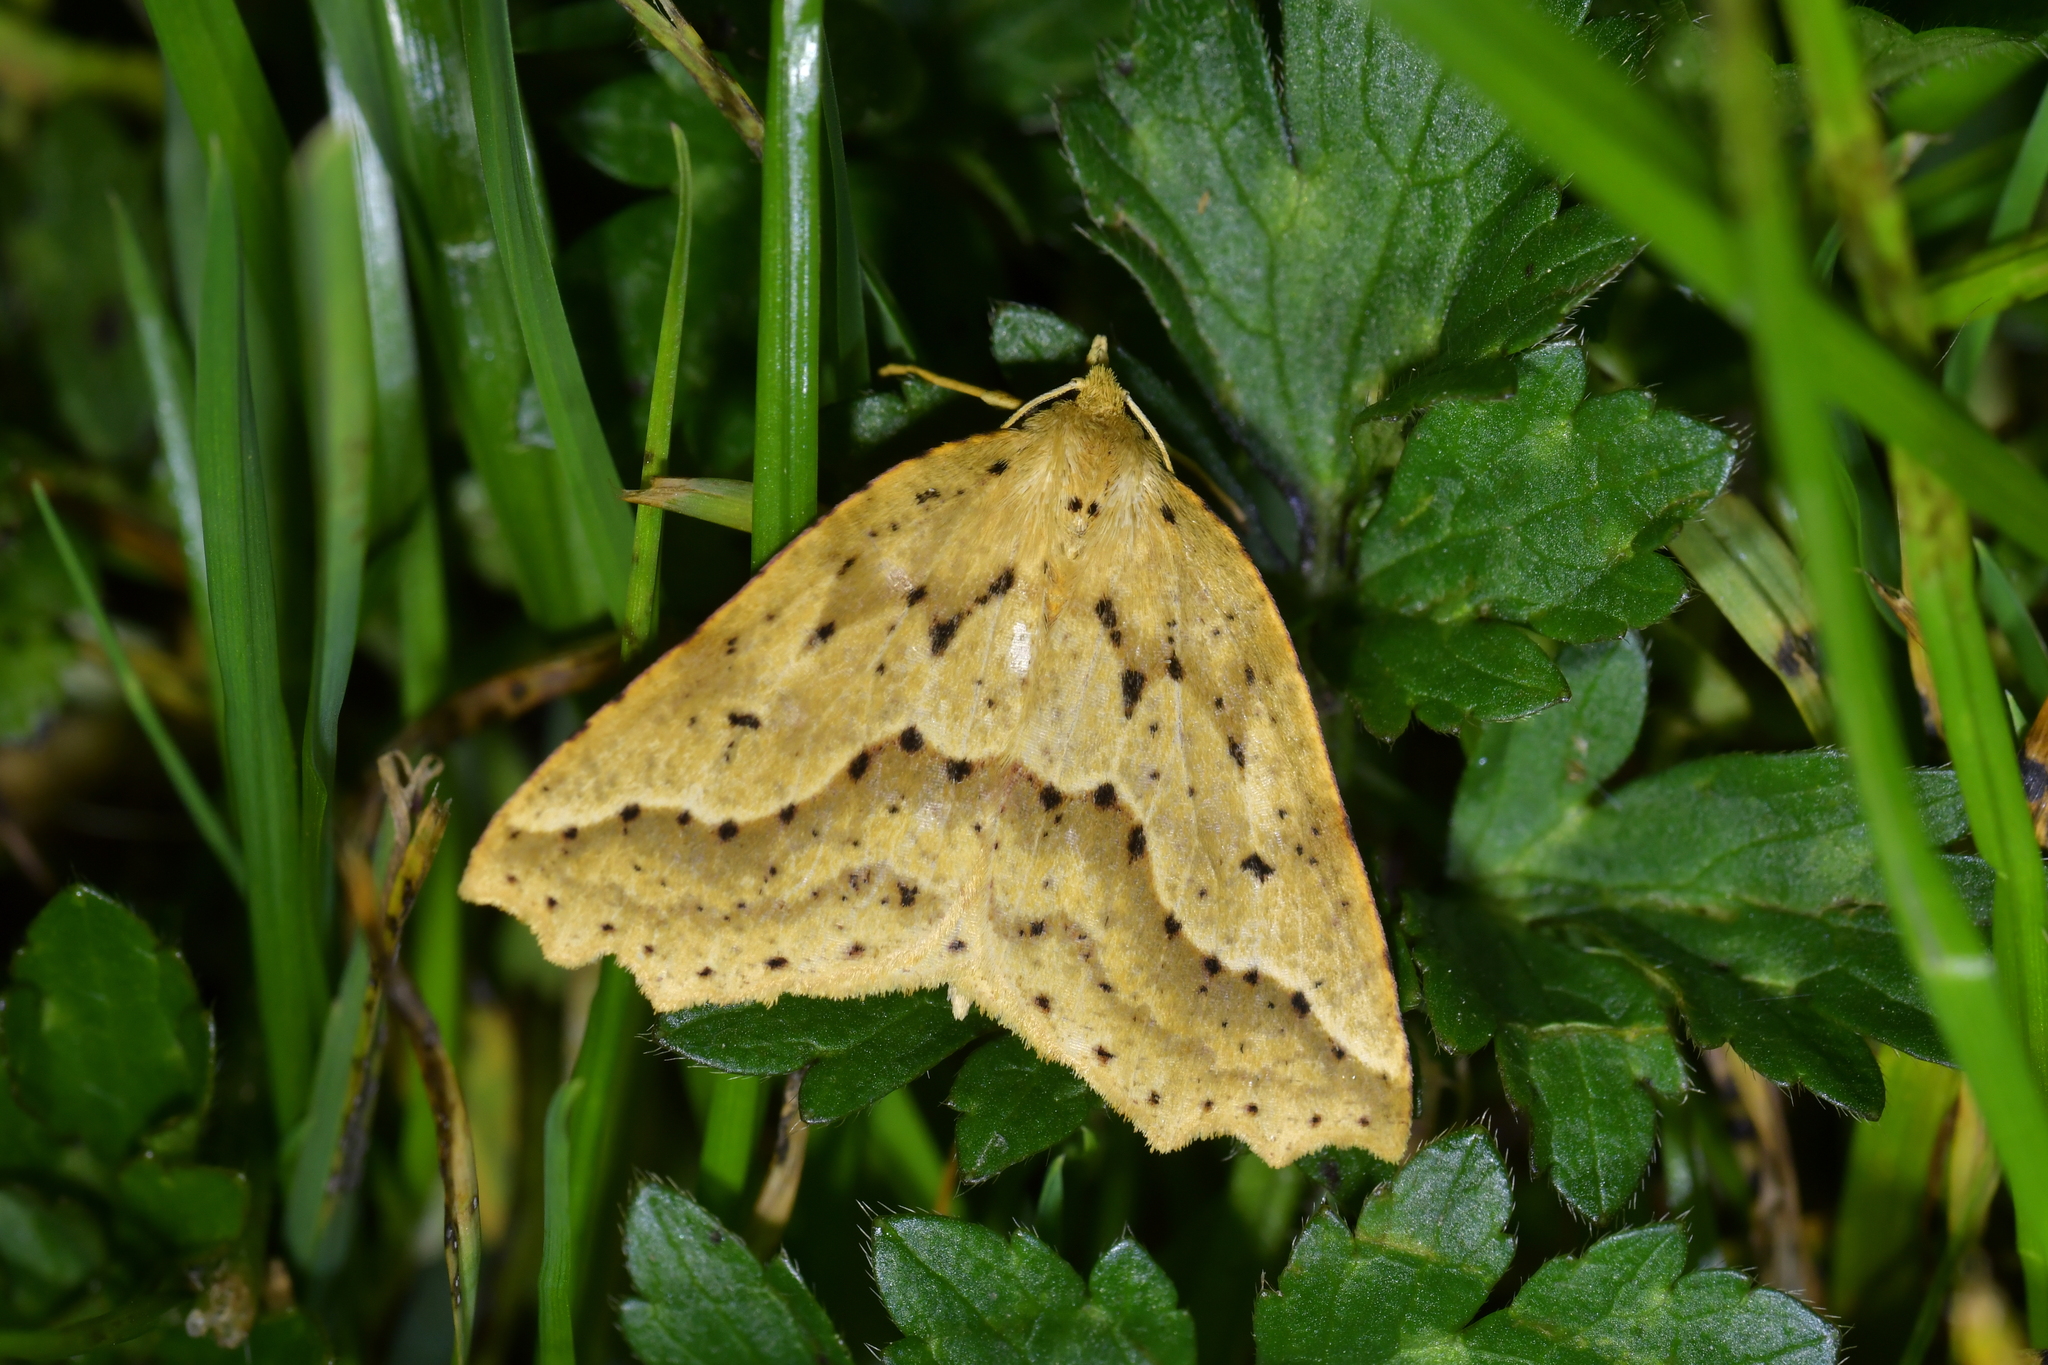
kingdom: Animalia
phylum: Arthropoda
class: Insecta
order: Lepidoptera
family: Geometridae
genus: Ischalis
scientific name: Ischalis variabilis
